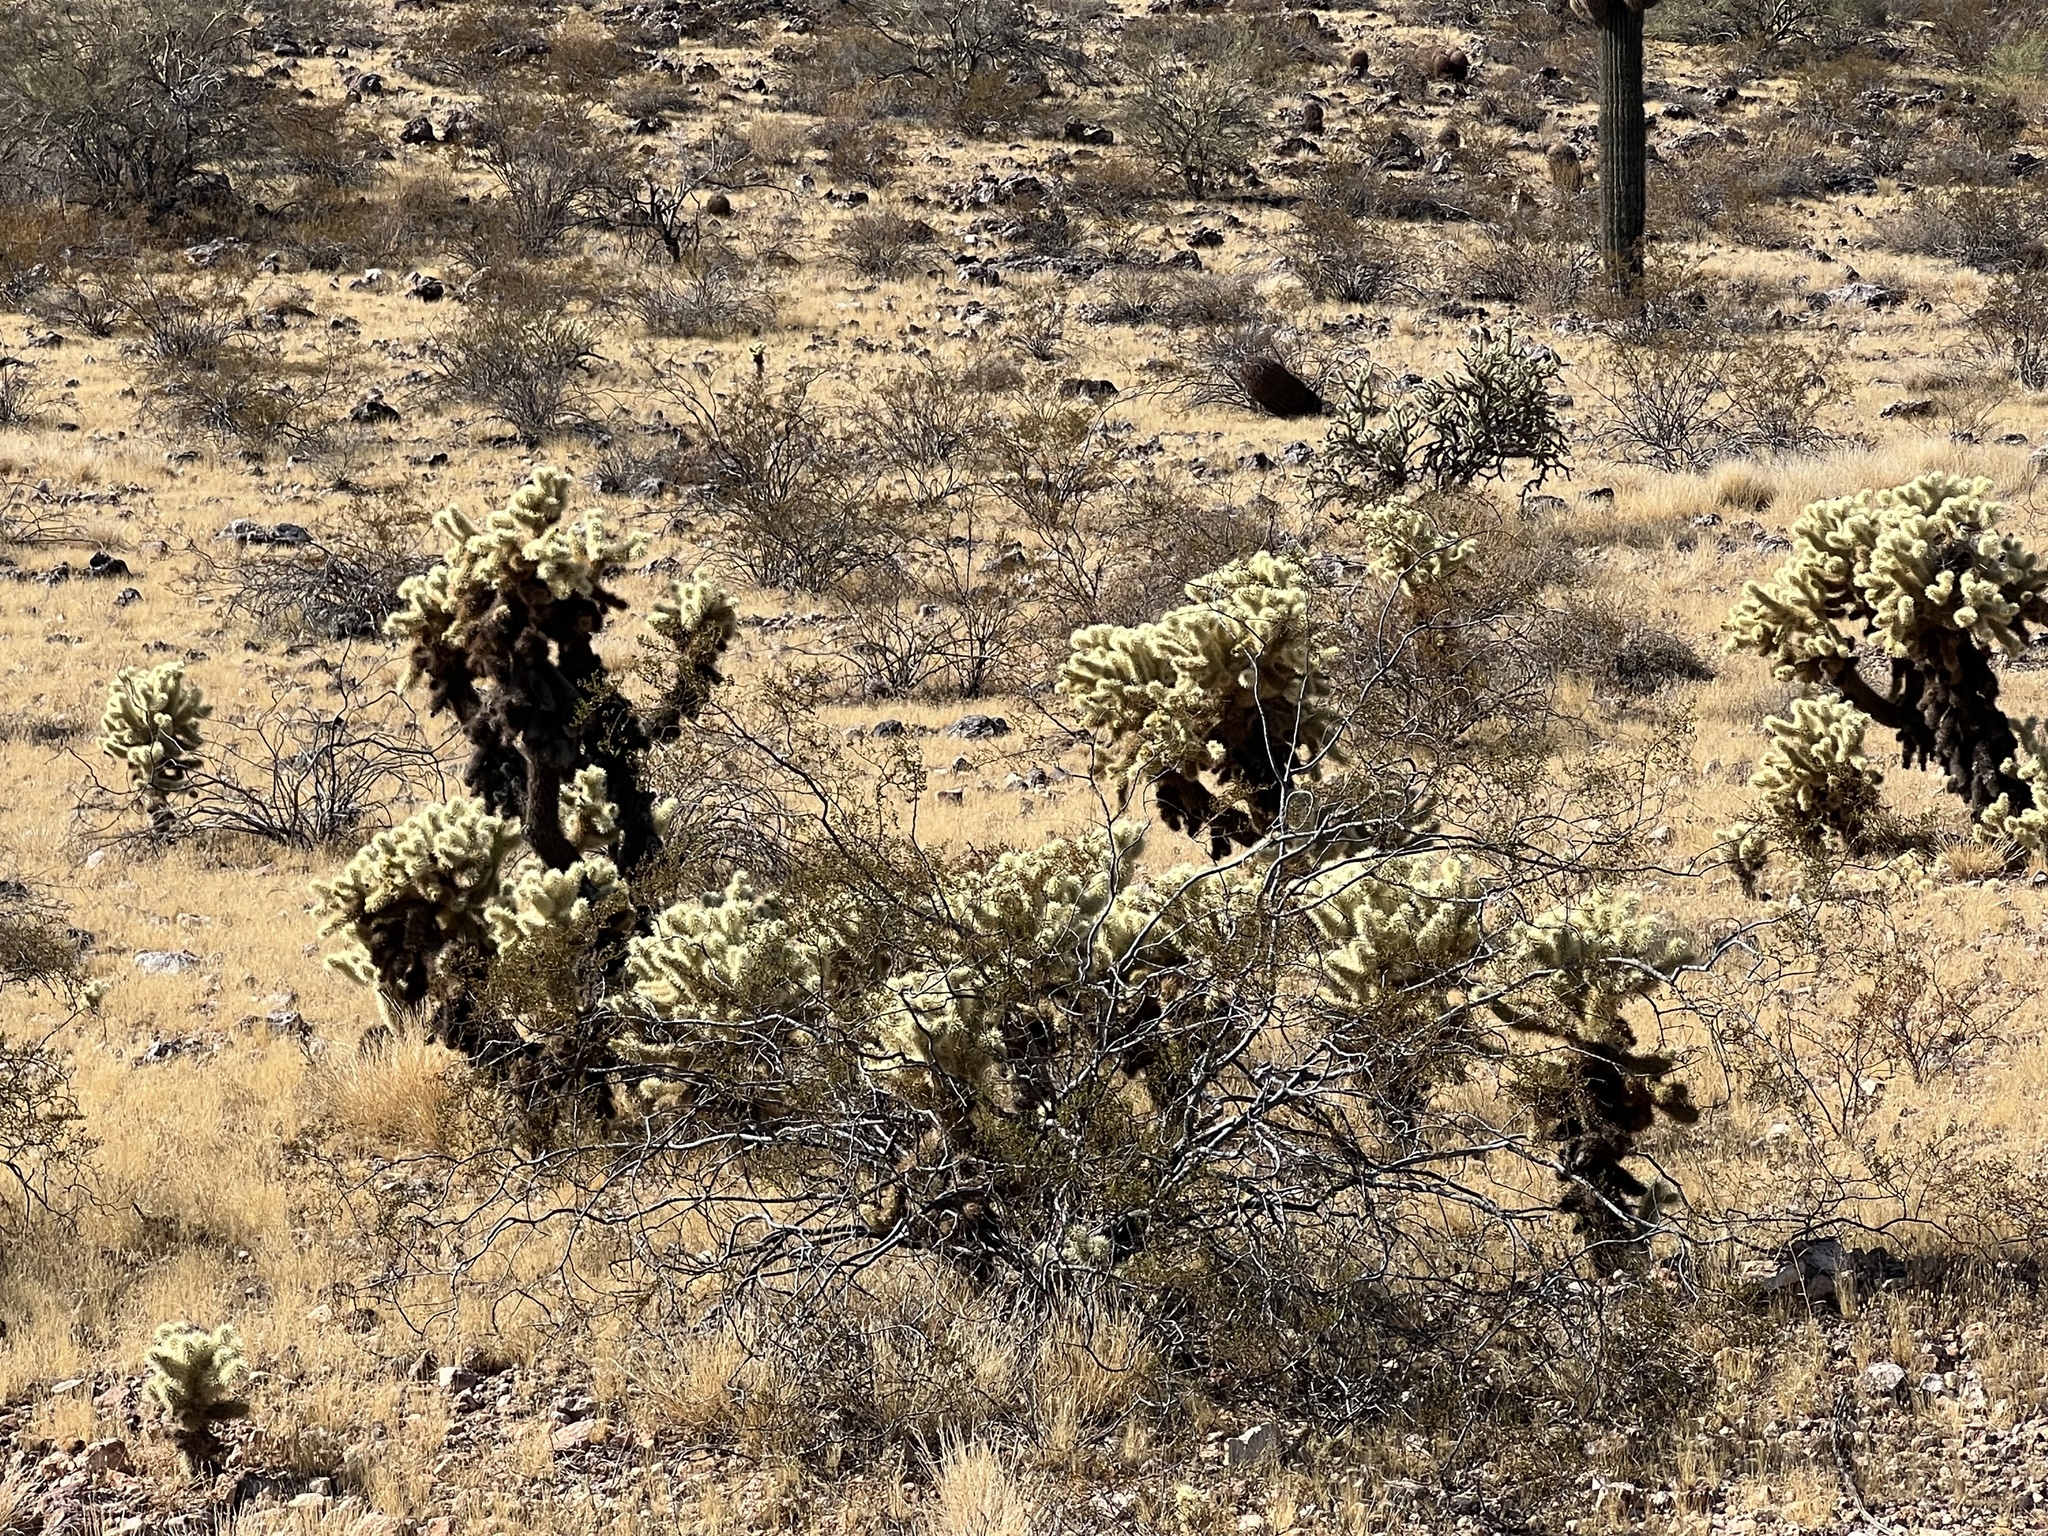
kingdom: Plantae
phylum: Tracheophyta
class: Magnoliopsida
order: Caryophyllales
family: Cactaceae
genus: Cylindropuntia
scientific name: Cylindropuntia fosbergii
